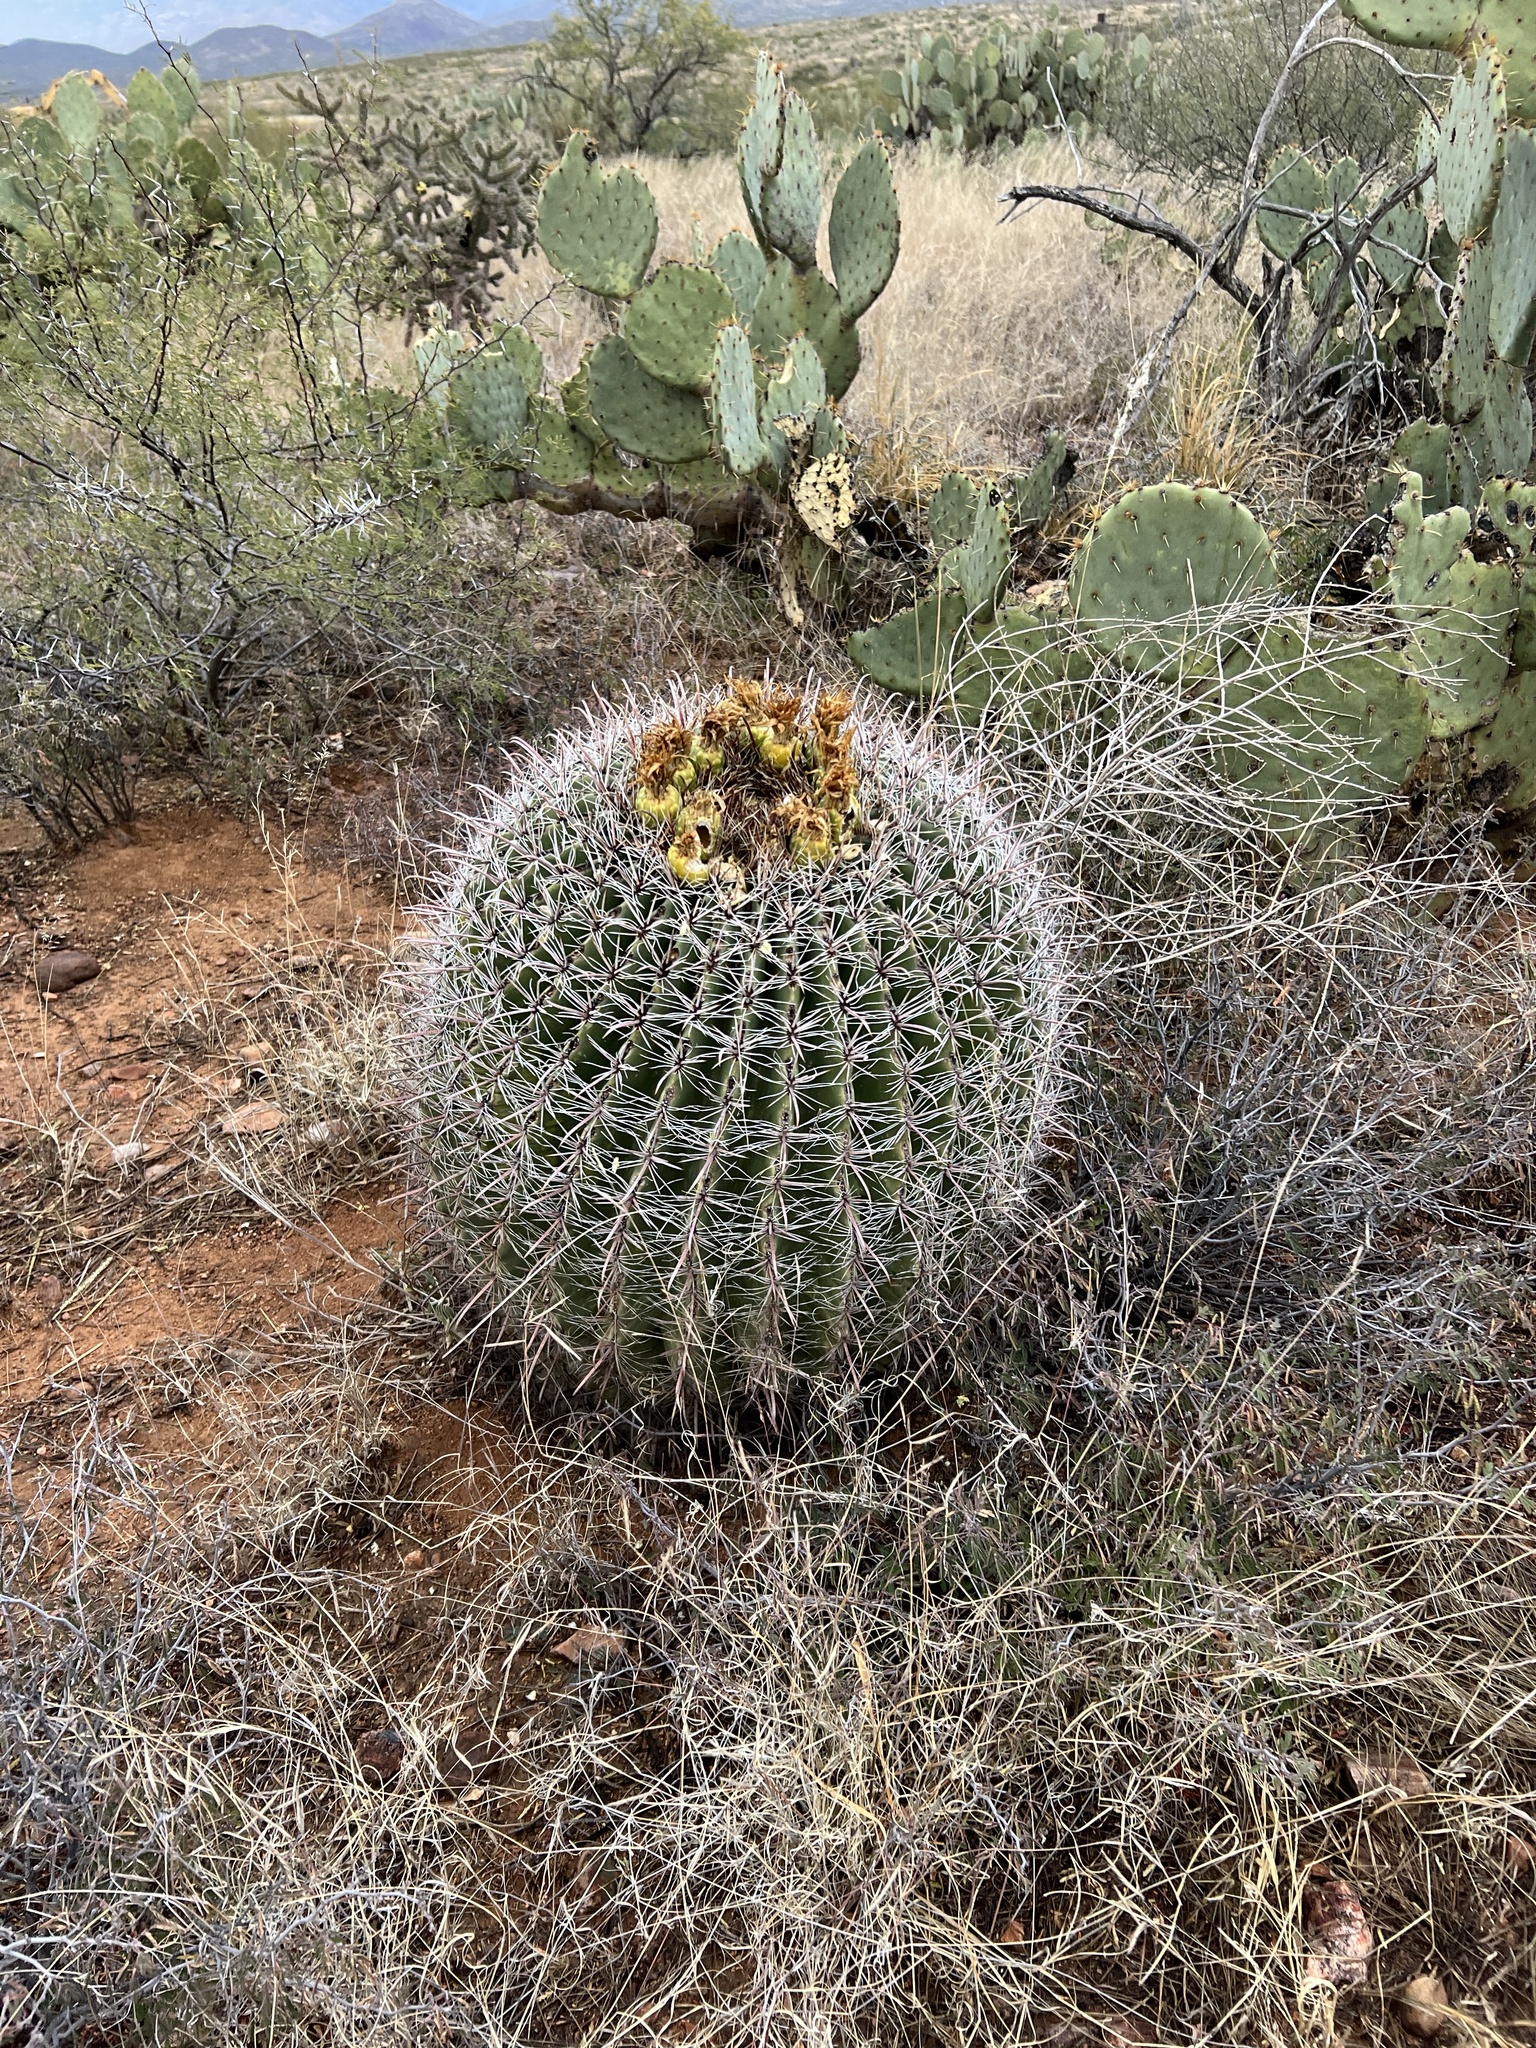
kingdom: Plantae
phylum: Tracheophyta
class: Magnoliopsida
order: Caryophyllales
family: Cactaceae
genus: Ferocactus
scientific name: Ferocactus wislizeni
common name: Candy barrel cactus
